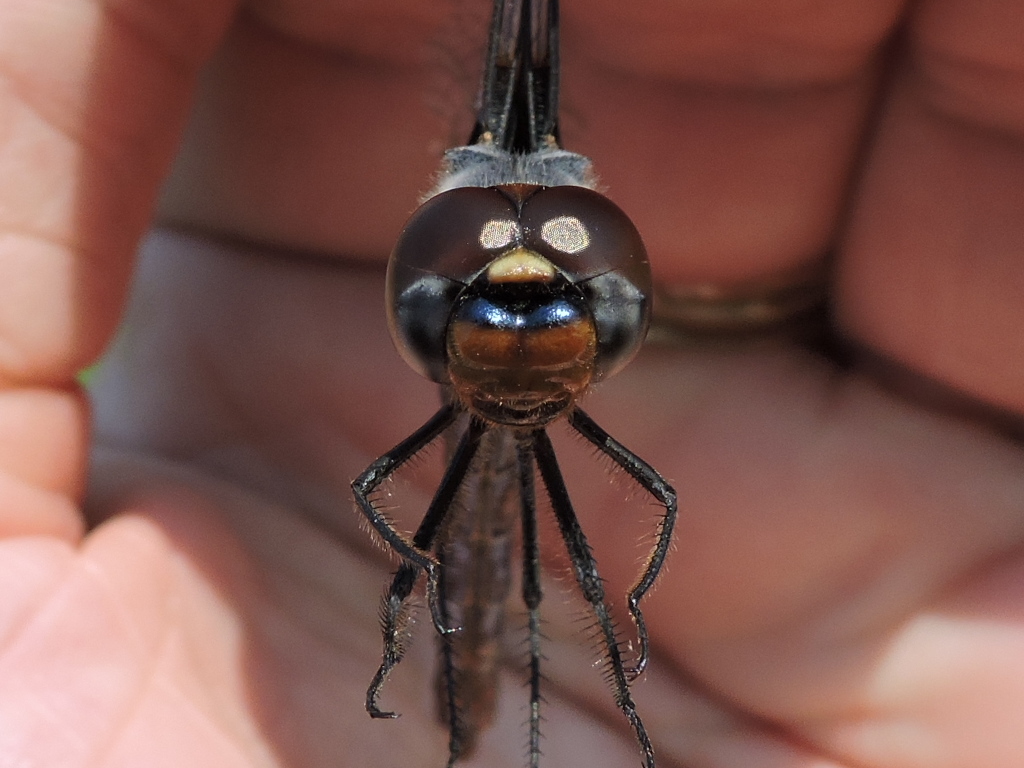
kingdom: Animalia
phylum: Arthropoda
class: Insecta
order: Odonata
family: Libellulidae
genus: Tramea
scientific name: Tramea lacerata
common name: Black saddlebags
